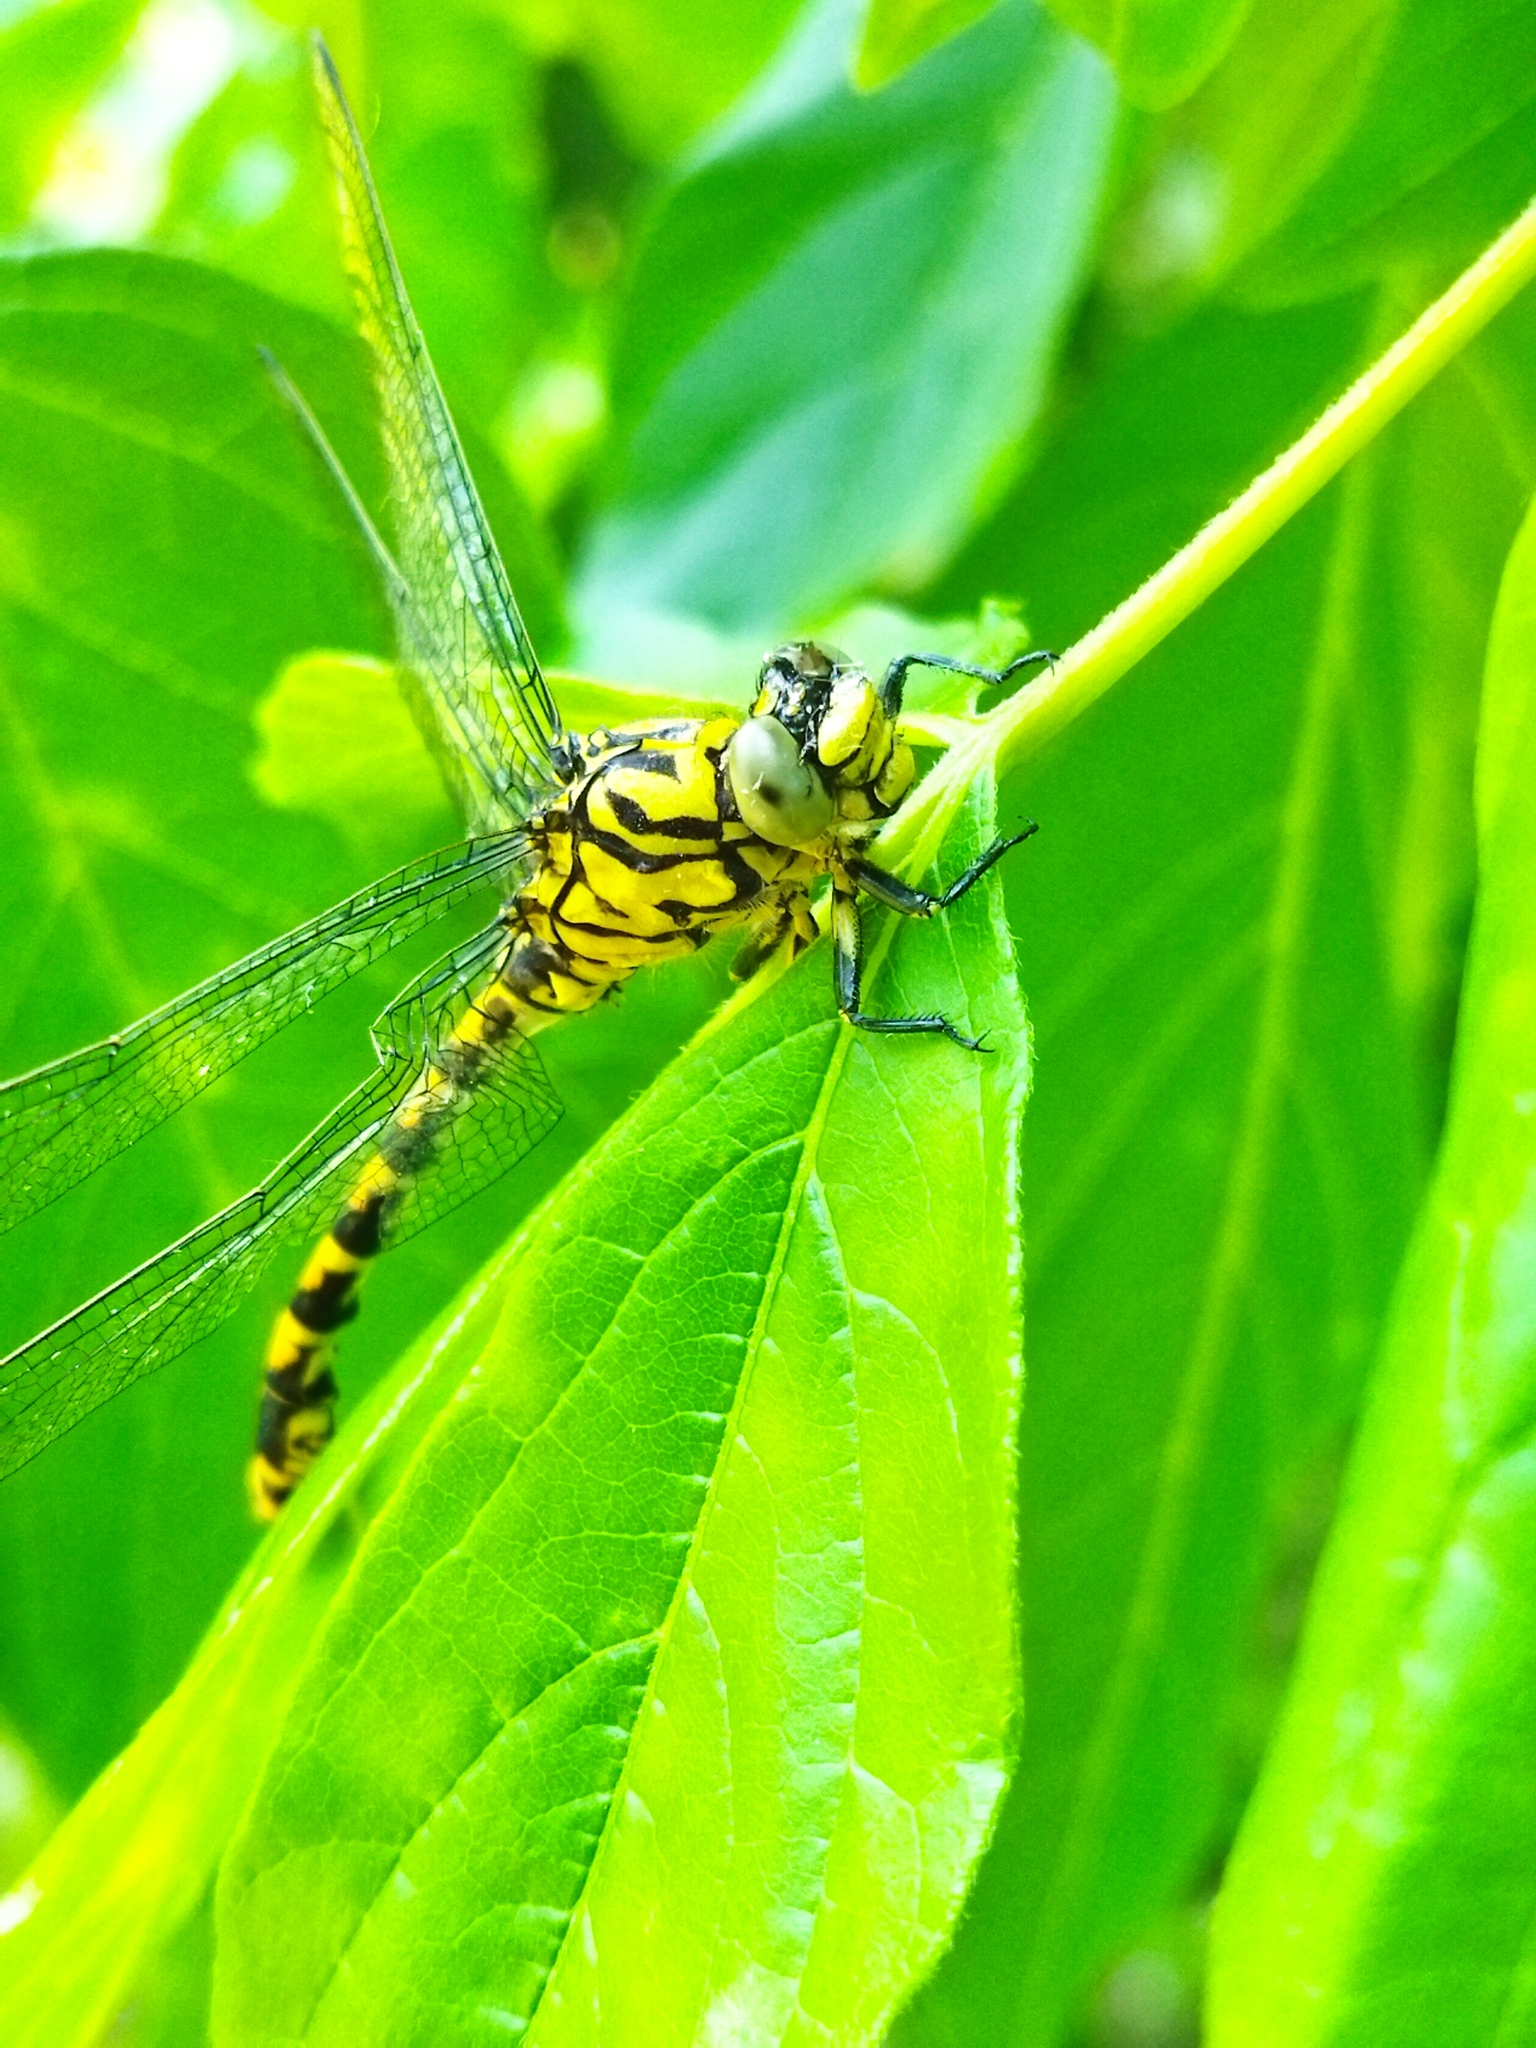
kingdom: Animalia
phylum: Arthropoda
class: Insecta
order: Odonata
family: Gomphidae
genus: Onychogomphus
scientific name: Onychogomphus forcipatus
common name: Small pincertail
